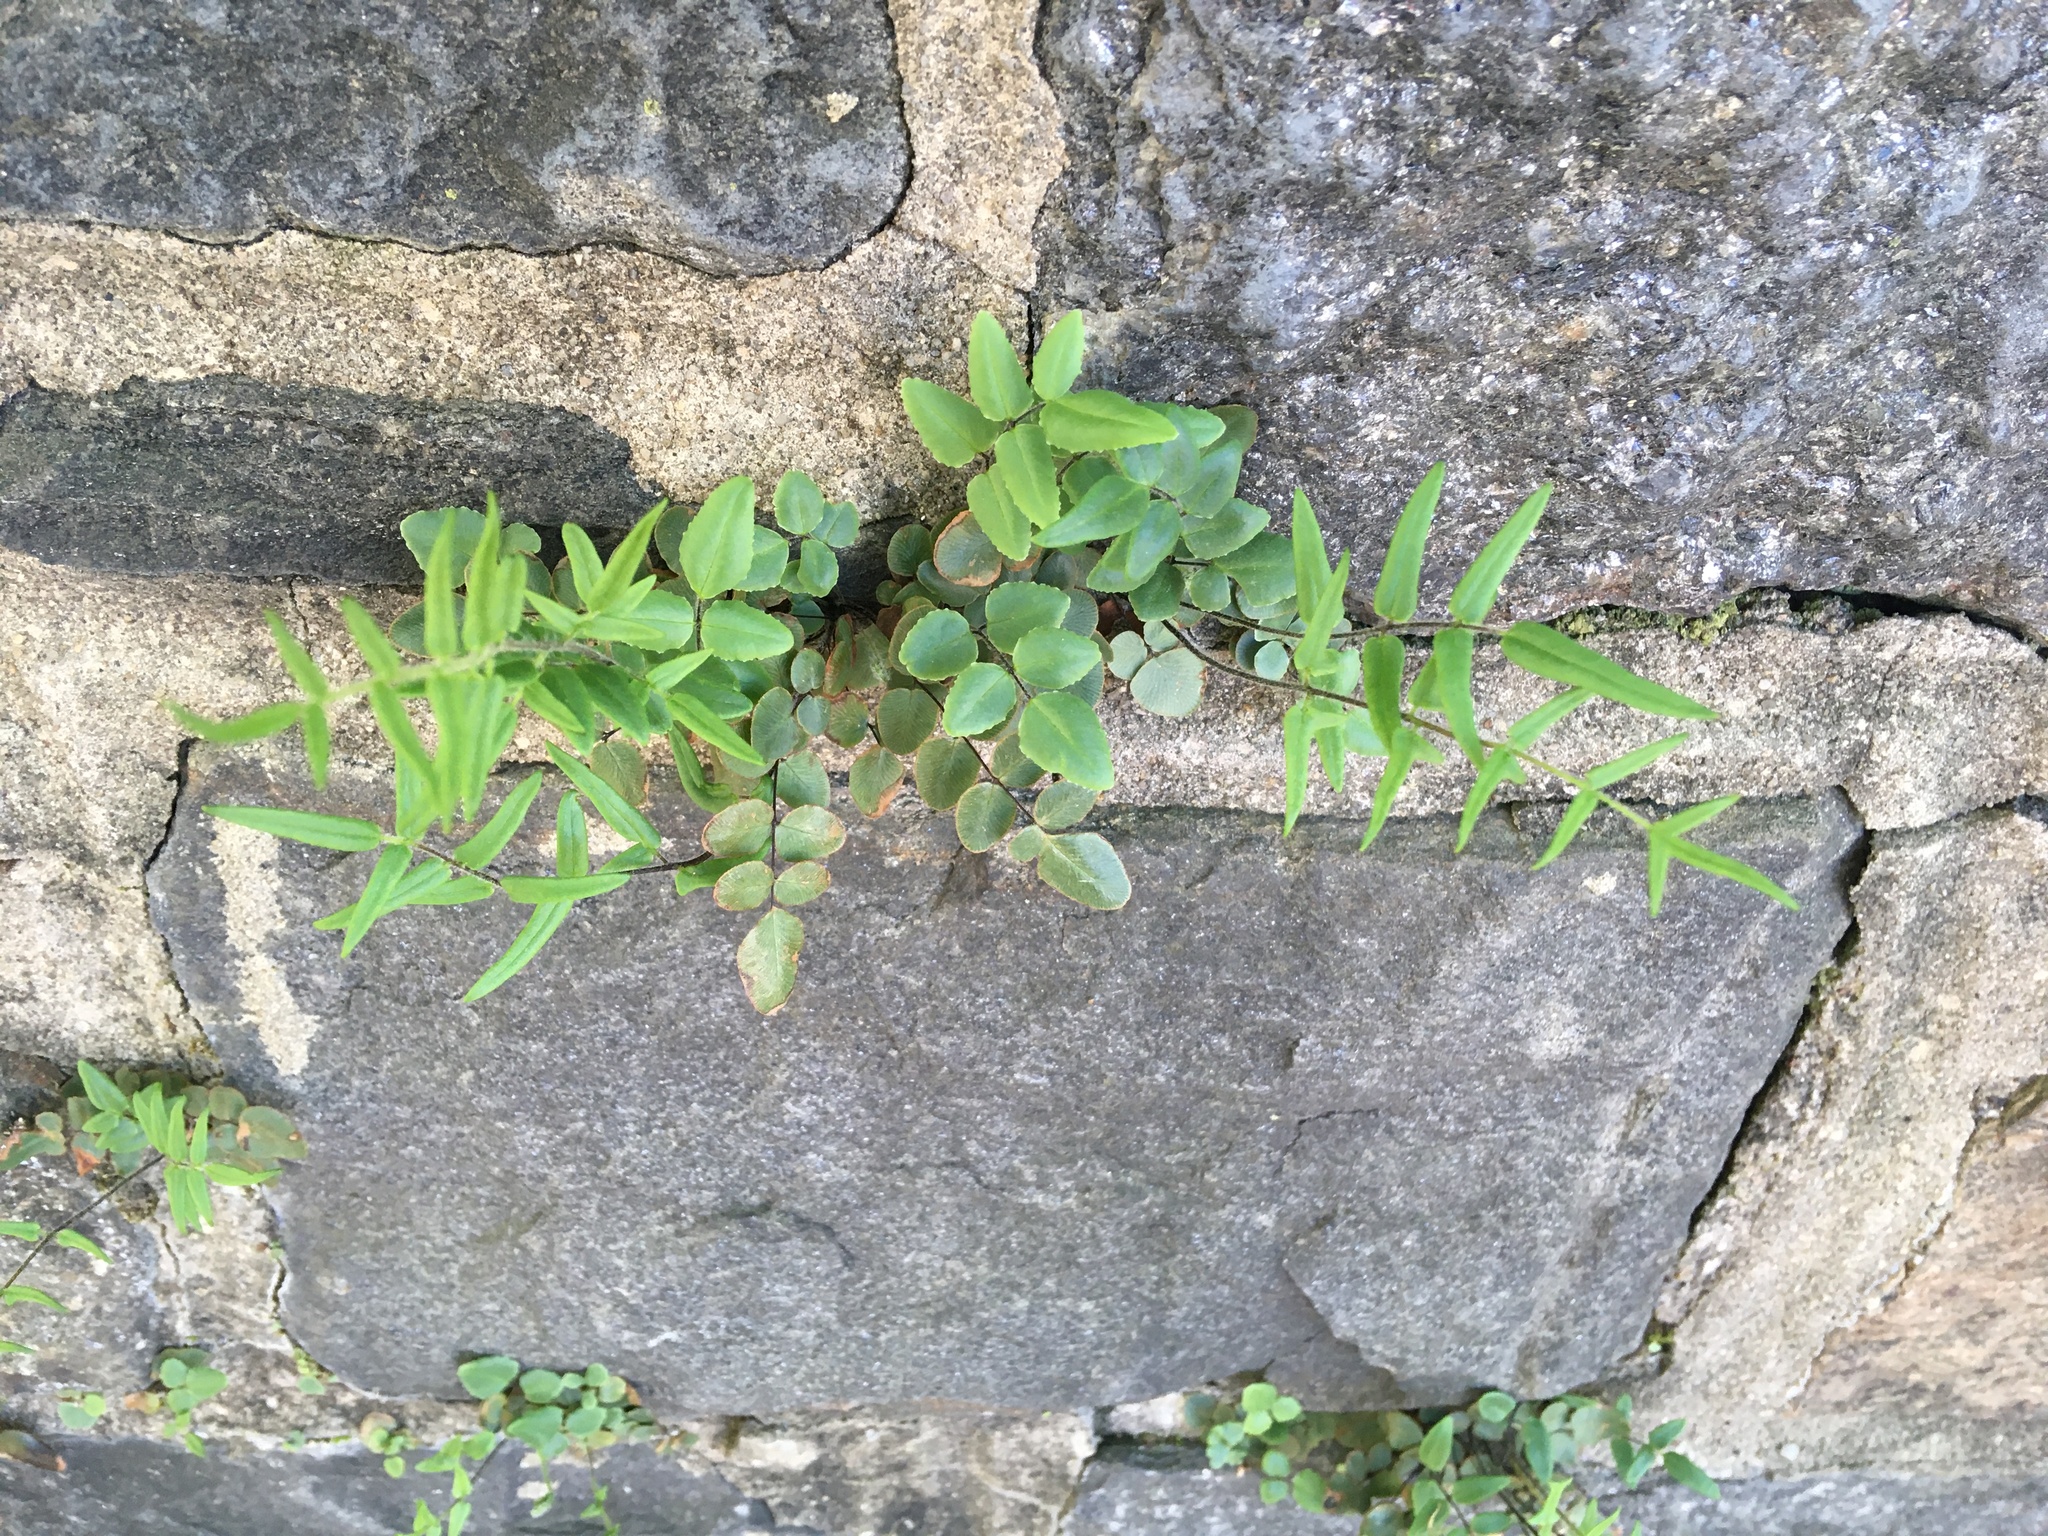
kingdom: Plantae
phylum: Tracheophyta
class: Polypodiopsida
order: Polypodiales
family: Pteridaceae
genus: Pellaea
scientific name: Pellaea atropurpurea
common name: Hairy cliffbrake
